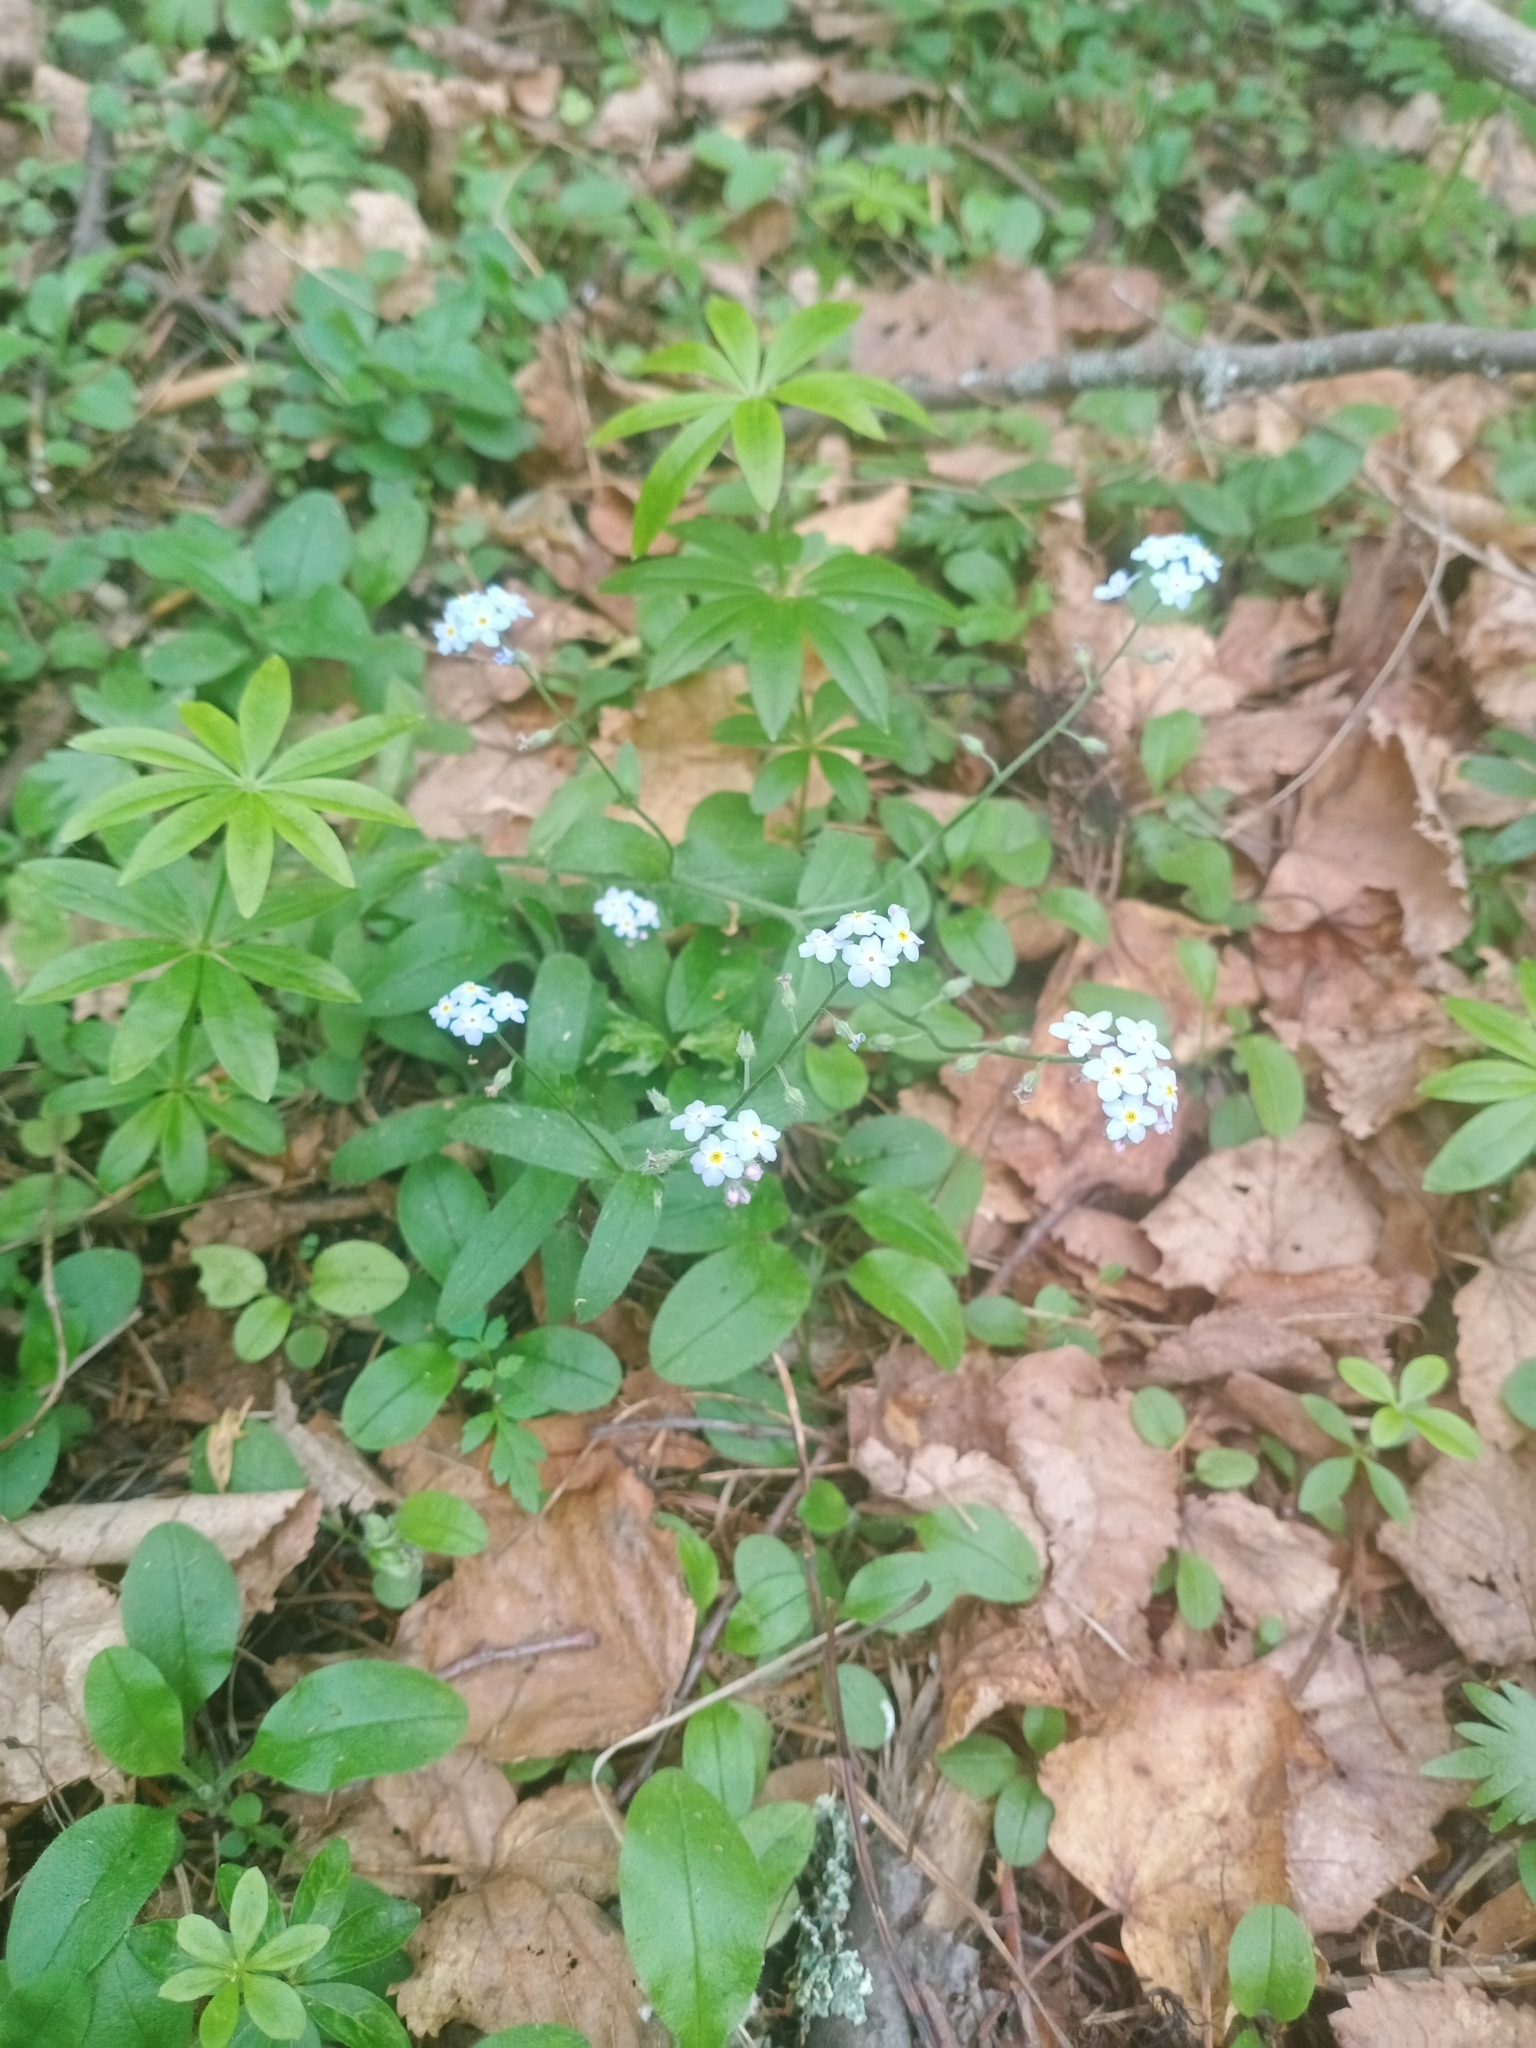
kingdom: Plantae
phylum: Tracheophyta
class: Magnoliopsida
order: Boraginales
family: Boraginaceae
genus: Myosotis
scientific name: Myosotis sylvatica
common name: Wood forget-me-not
